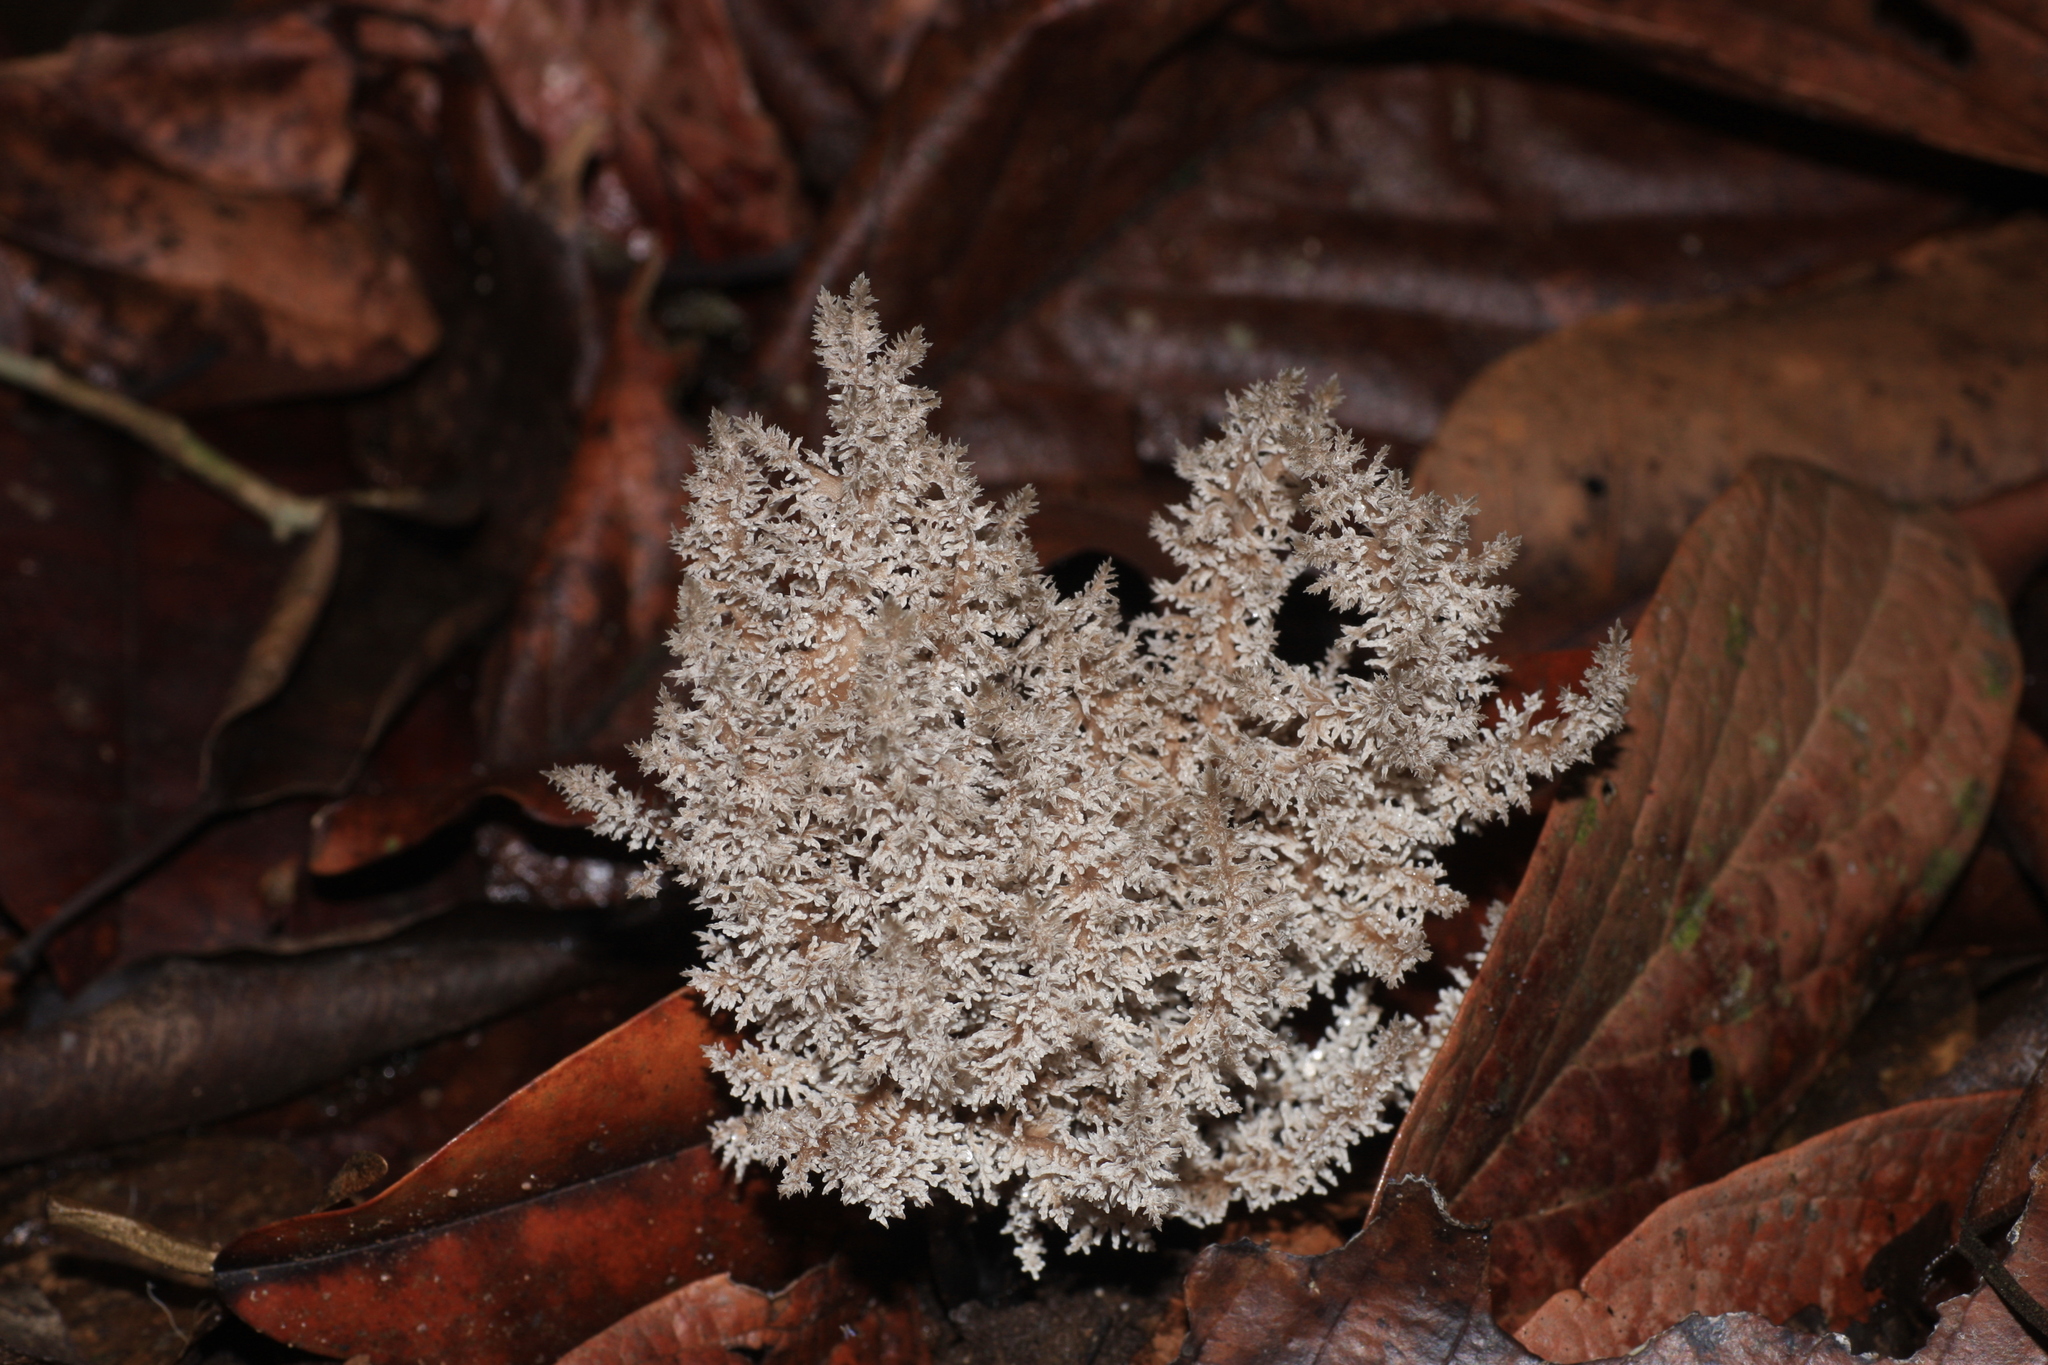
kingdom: Fungi
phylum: Ascomycota
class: Sordariomycetes
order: Xylariales
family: Xylariaceae
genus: Xylaria
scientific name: Xylaria terricola
